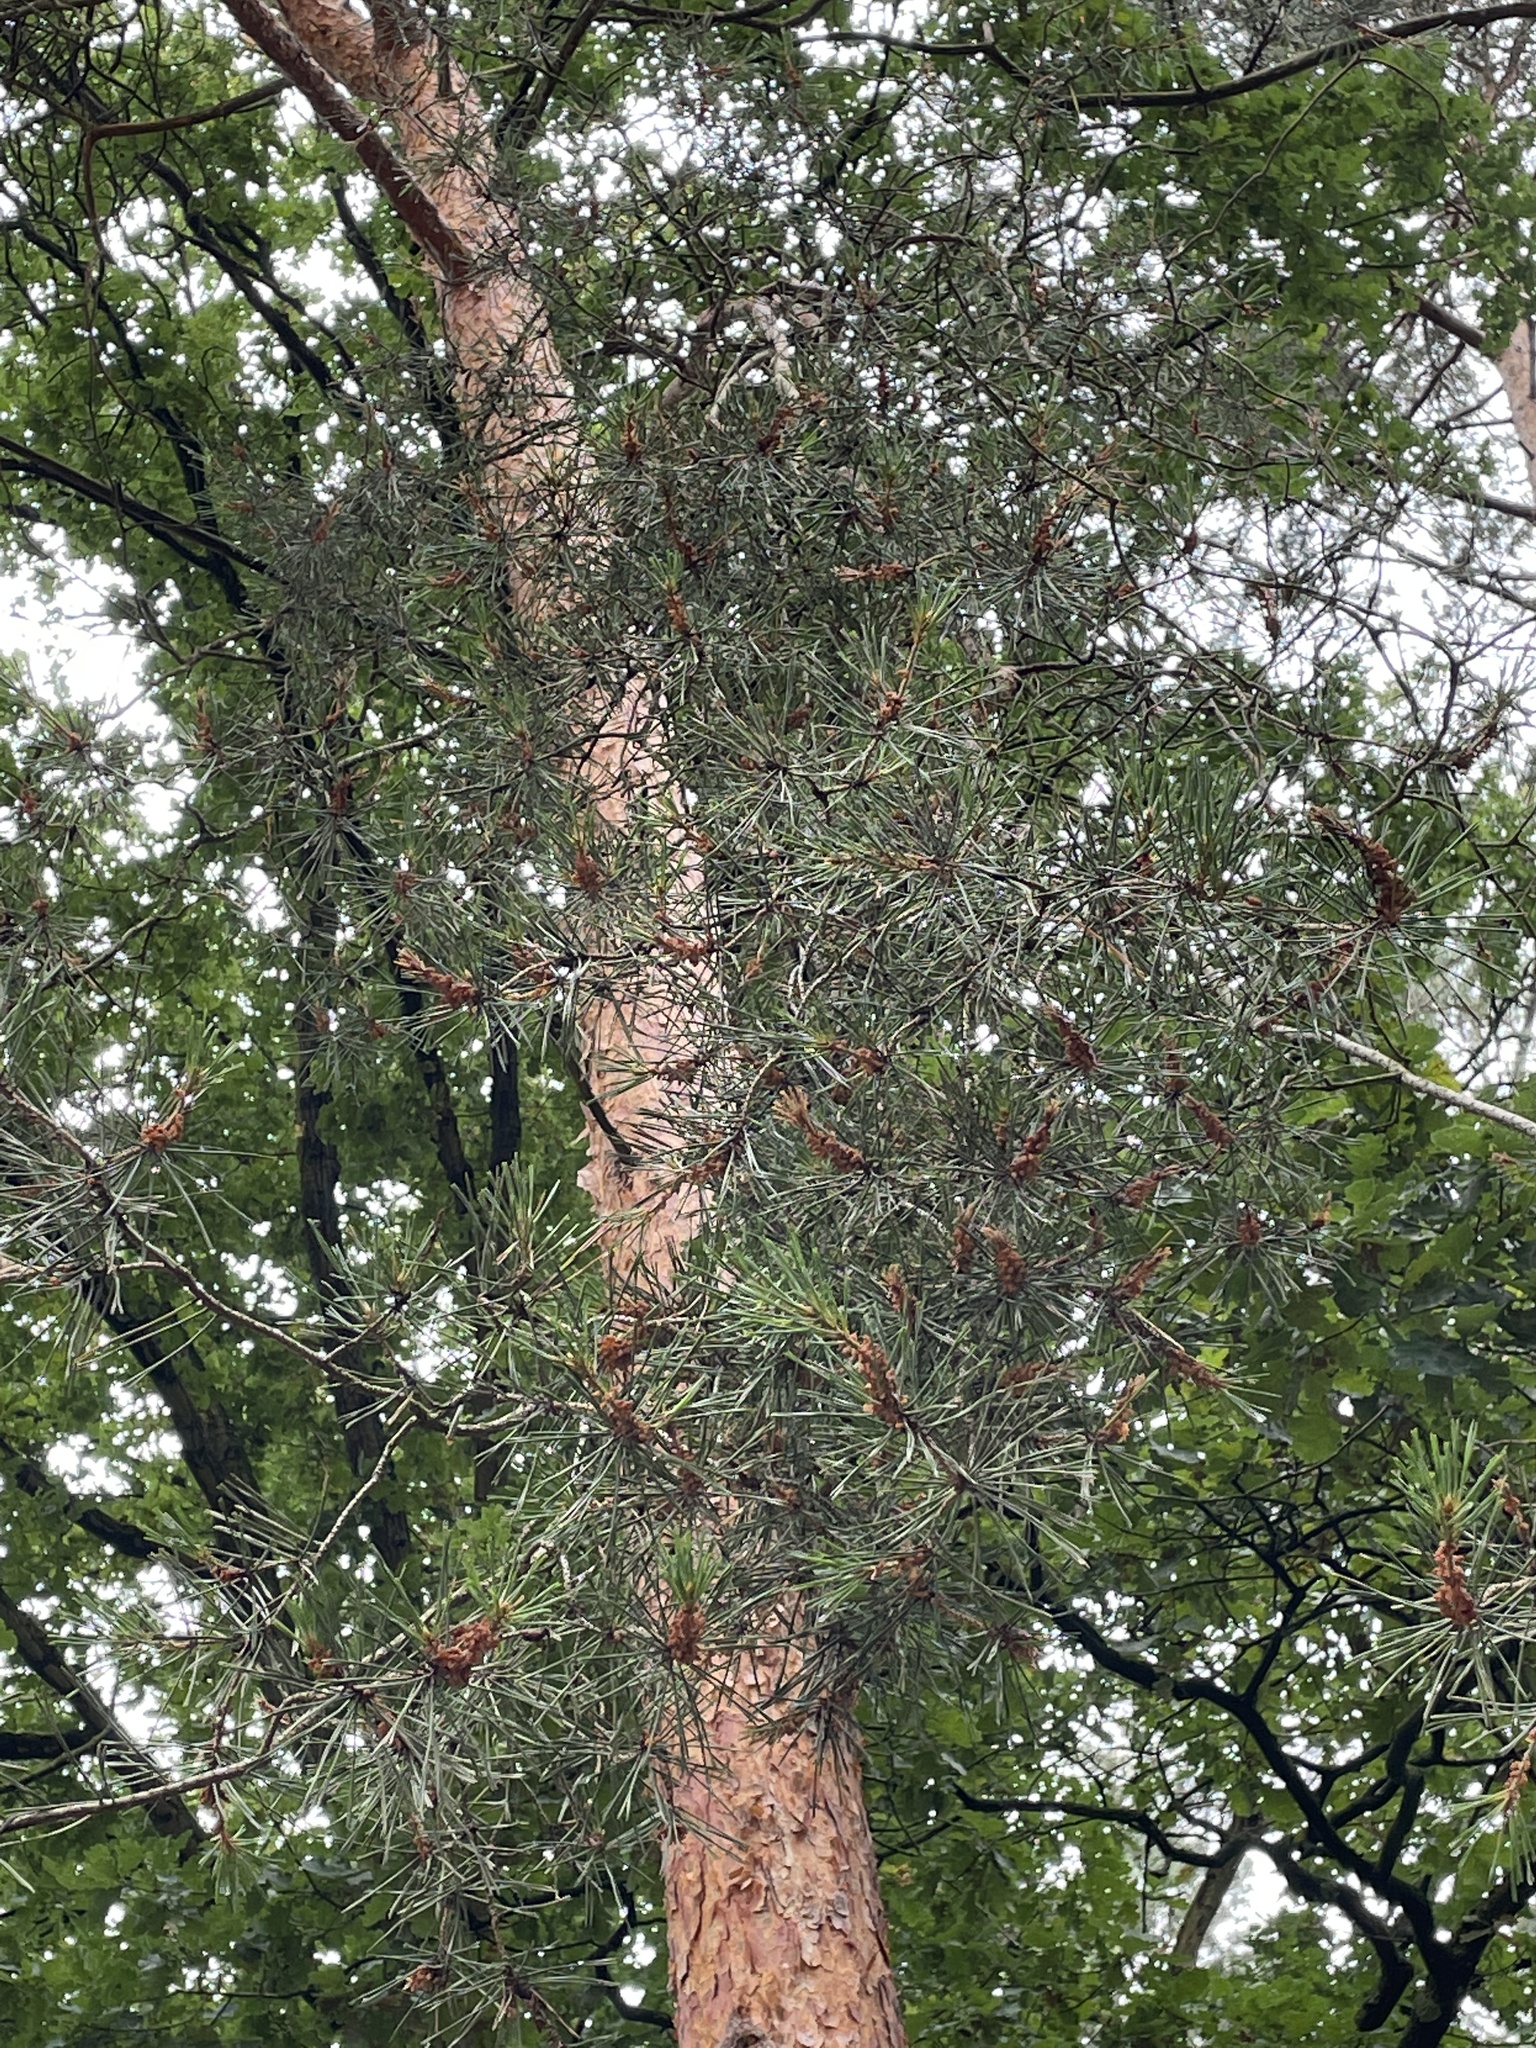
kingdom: Plantae
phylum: Tracheophyta
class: Pinopsida
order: Pinales
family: Pinaceae
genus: Pinus
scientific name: Pinus sylvestris
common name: Scots pine
